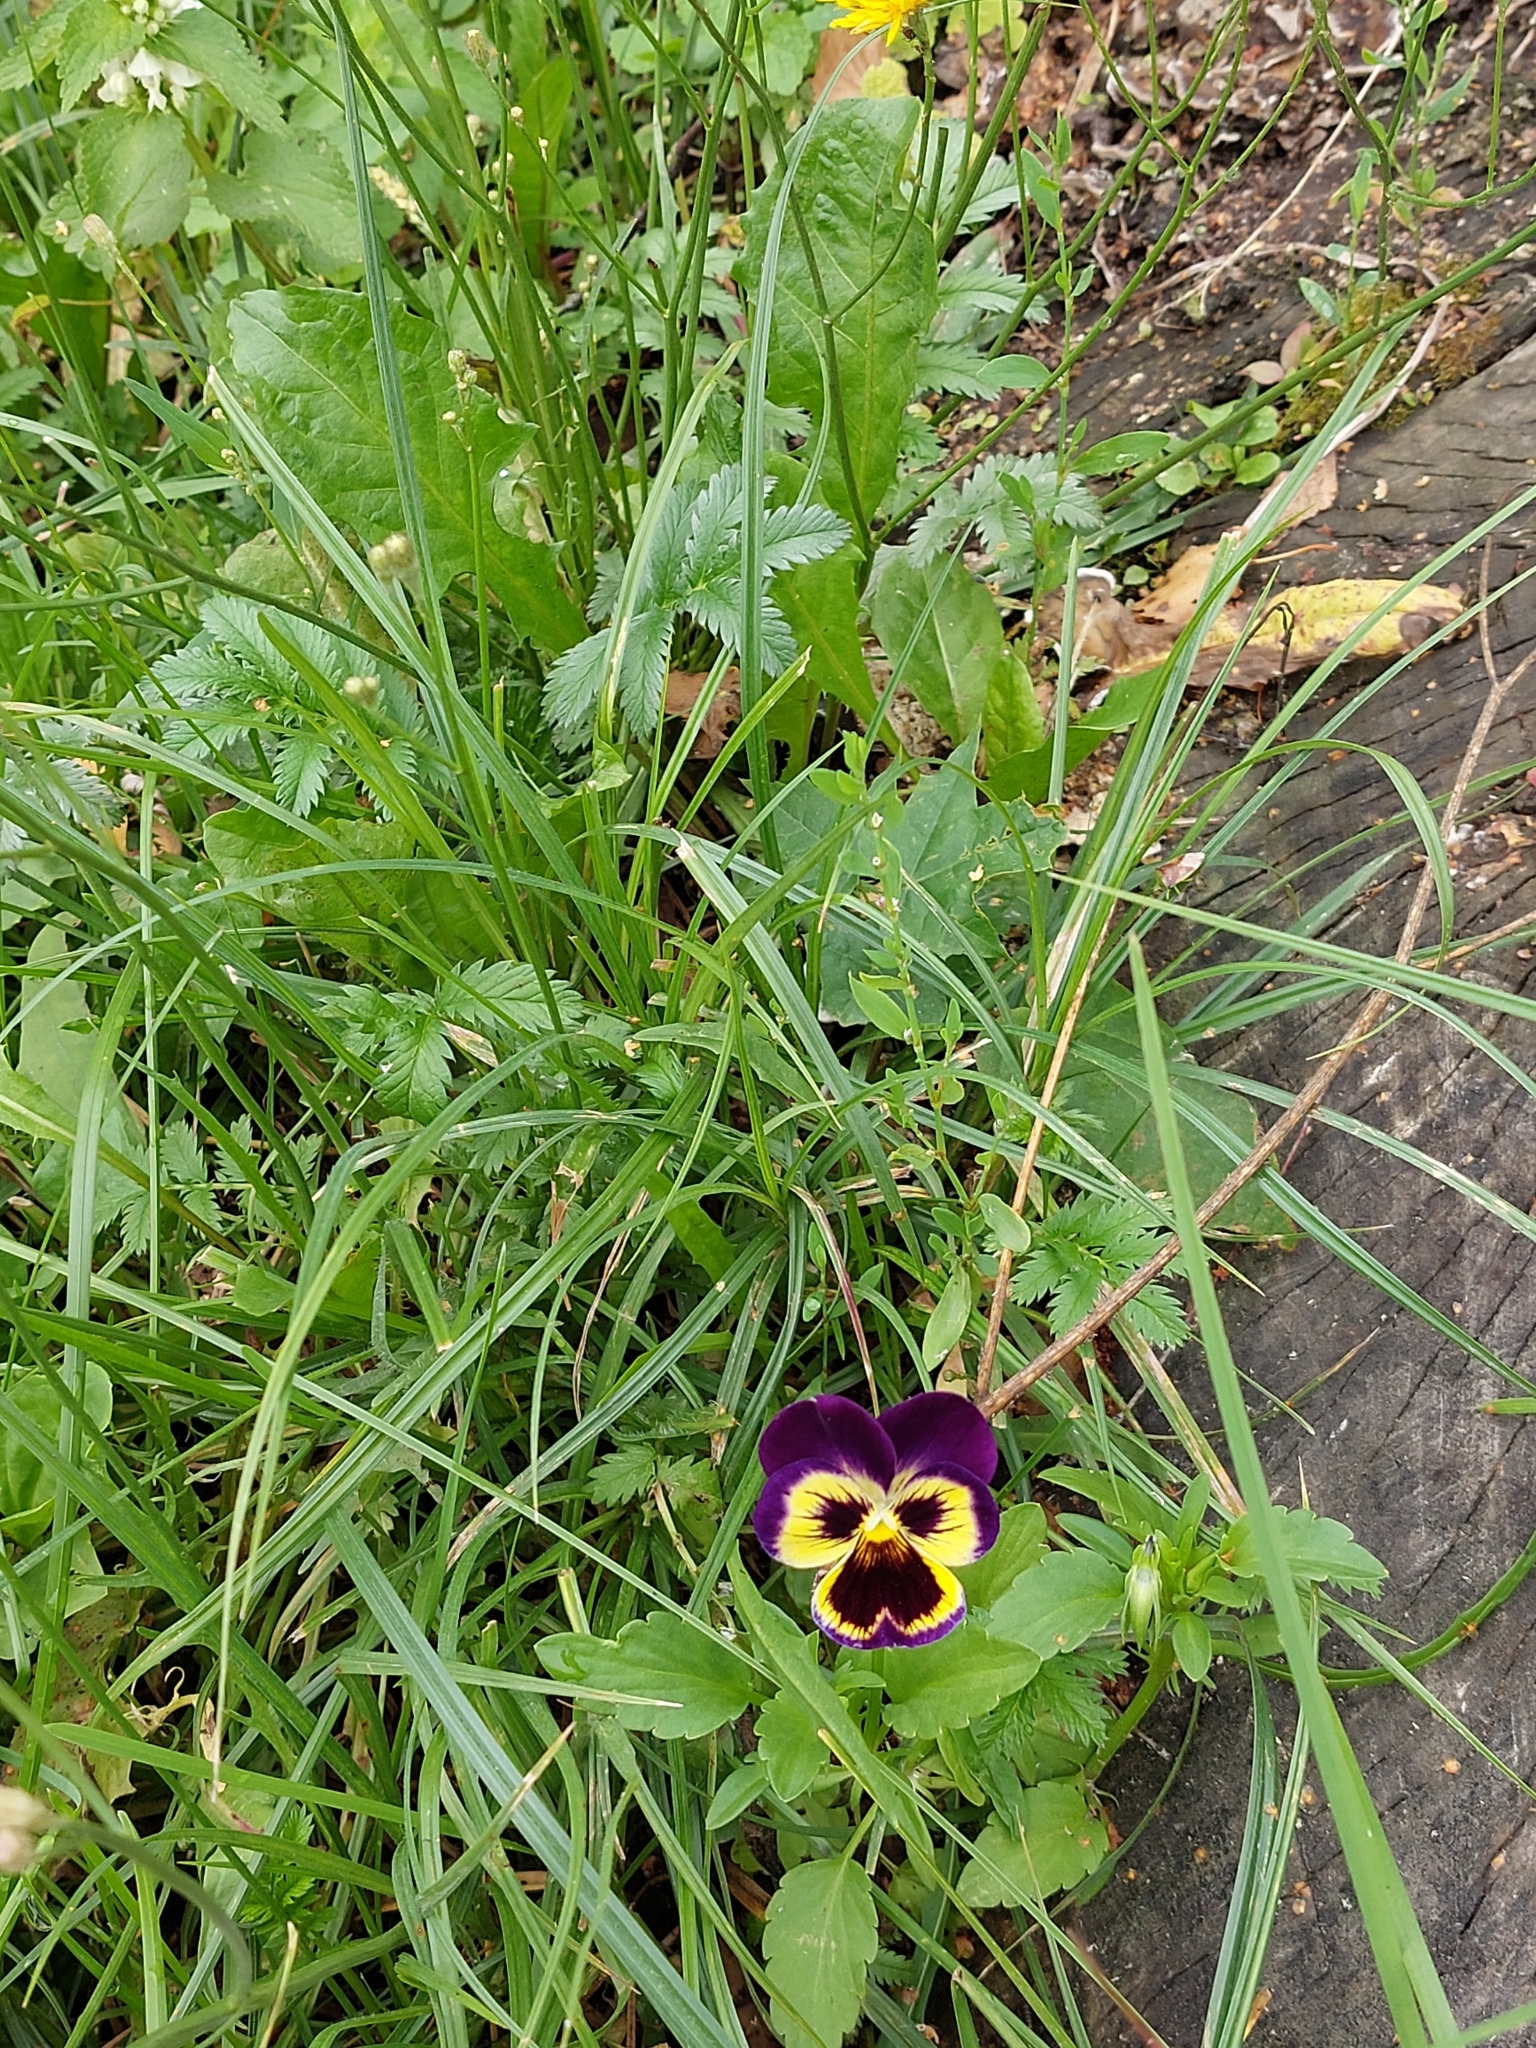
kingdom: Plantae
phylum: Tracheophyta
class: Magnoliopsida
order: Malpighiales
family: Violaceae
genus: Viola
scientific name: Viola wittrockiana
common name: Garden pansy
